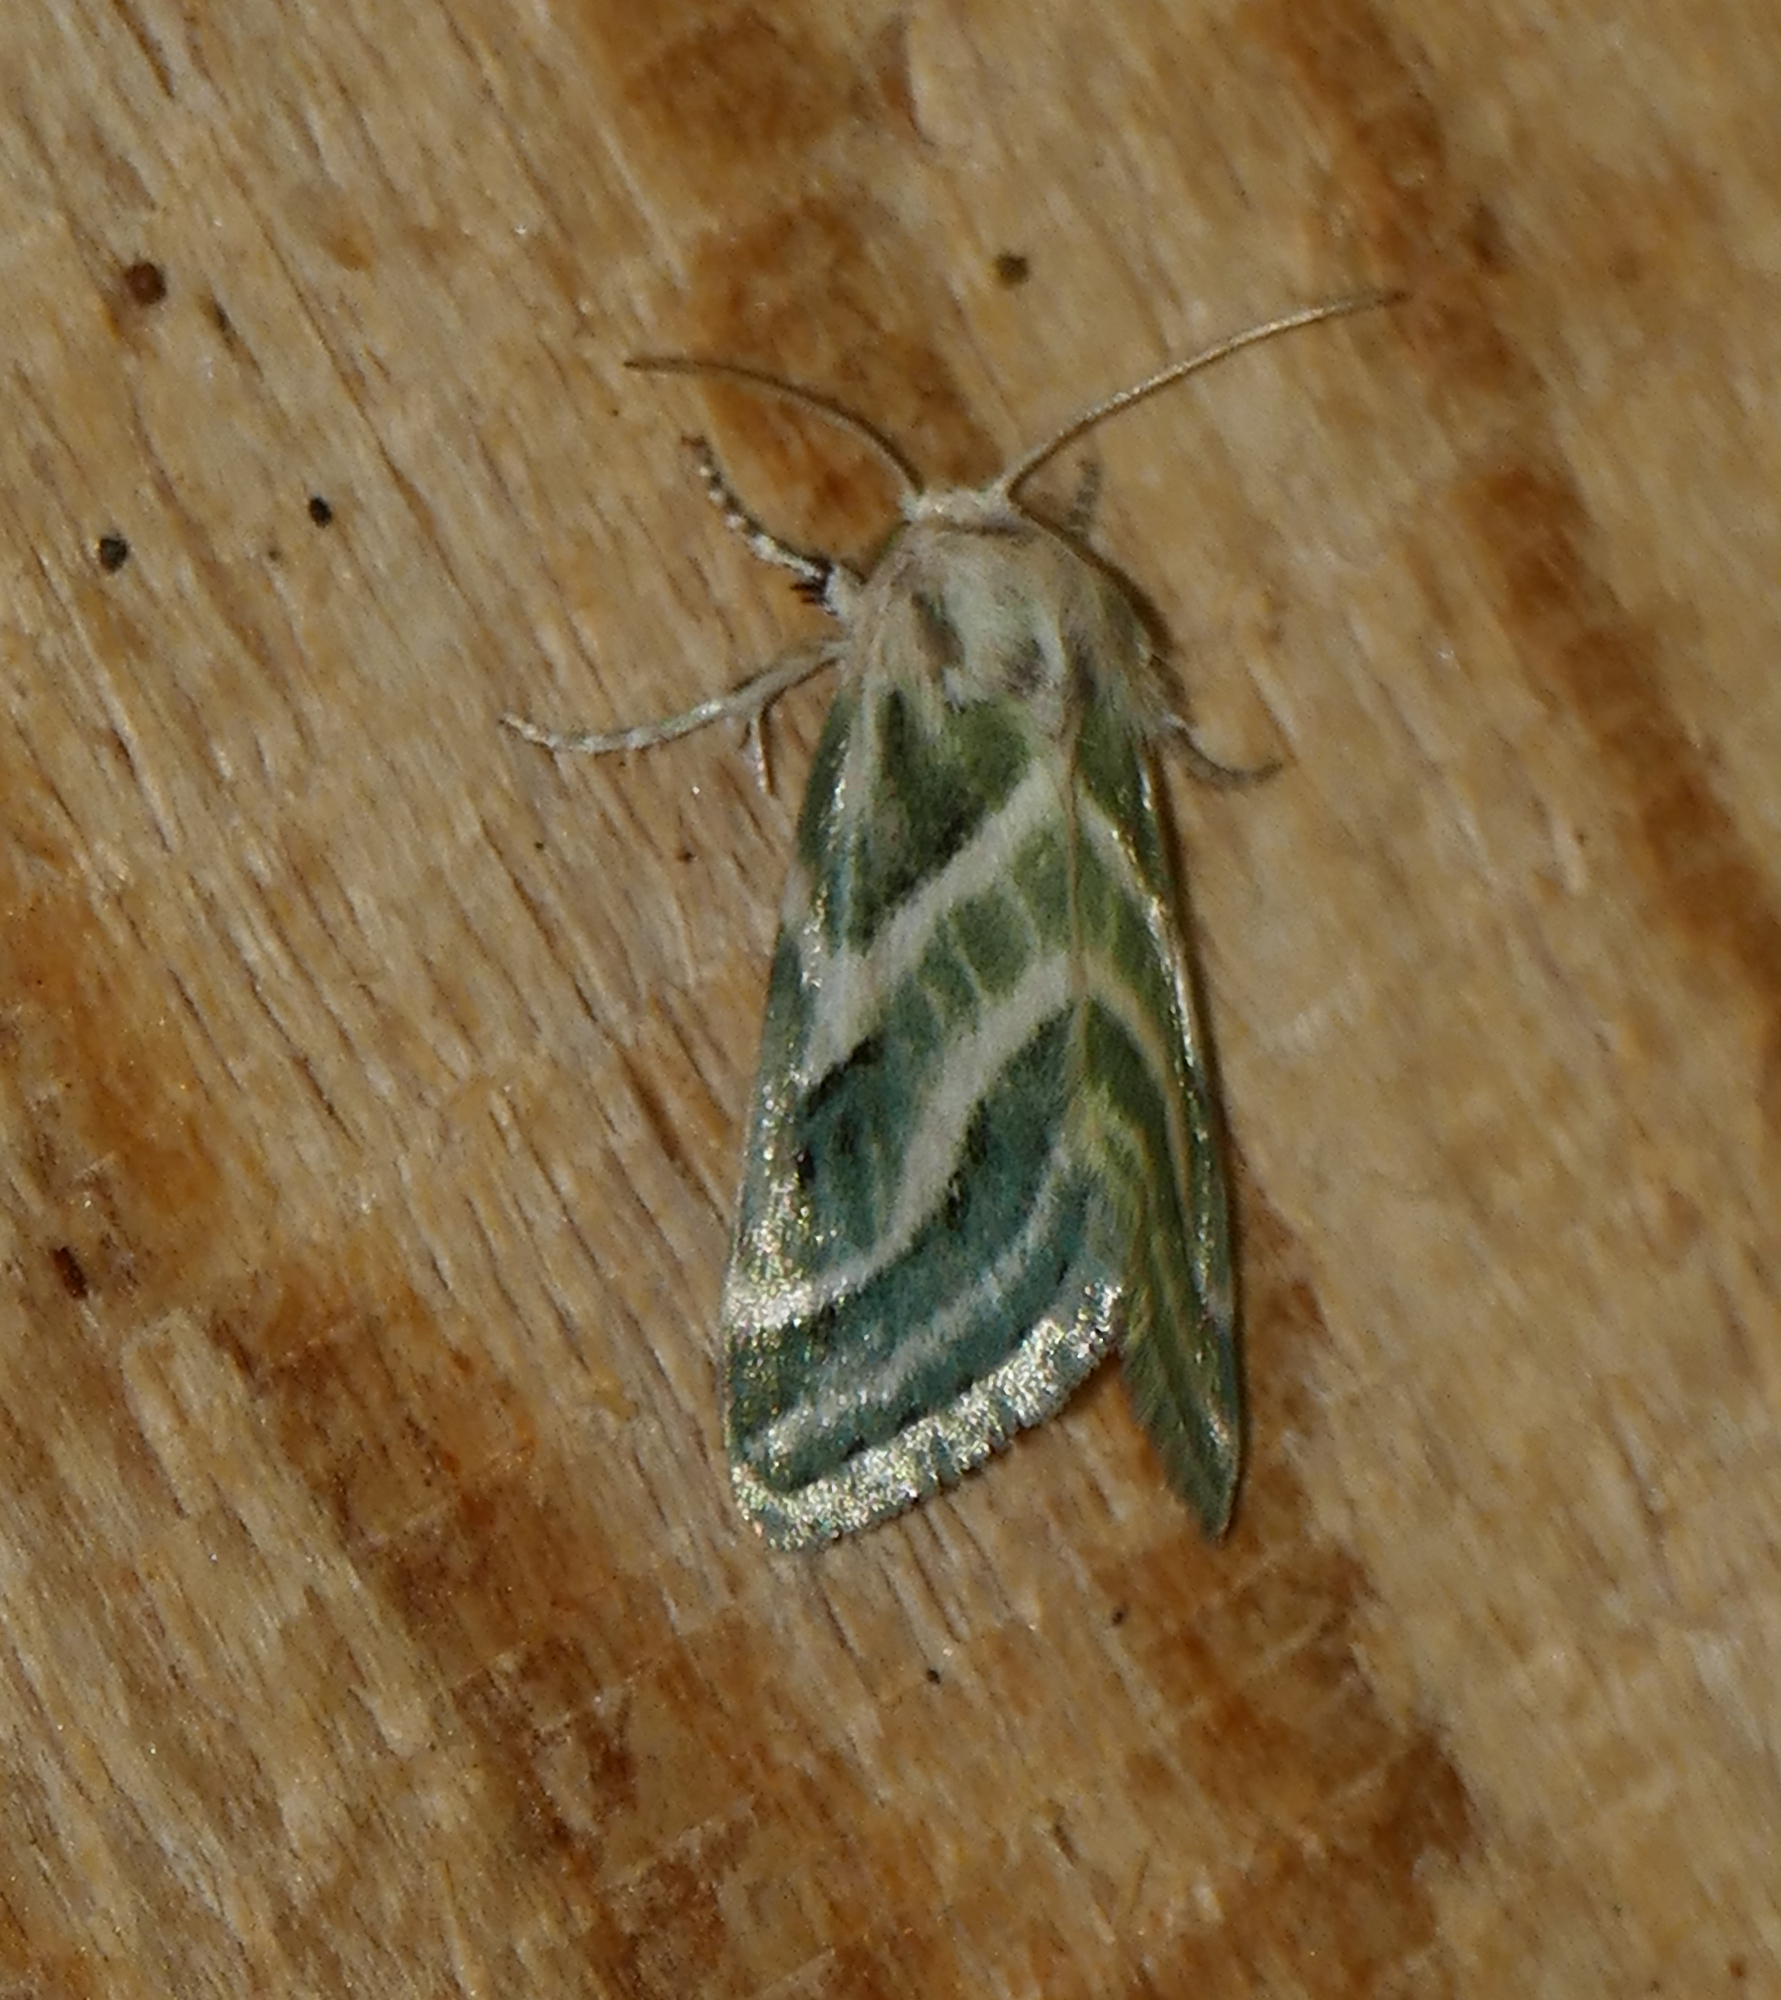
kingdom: Animalia
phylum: Arthropoda
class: Insecta
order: Lepidoptera
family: Noctuidae
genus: Schinia
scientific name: Schinia accessa
